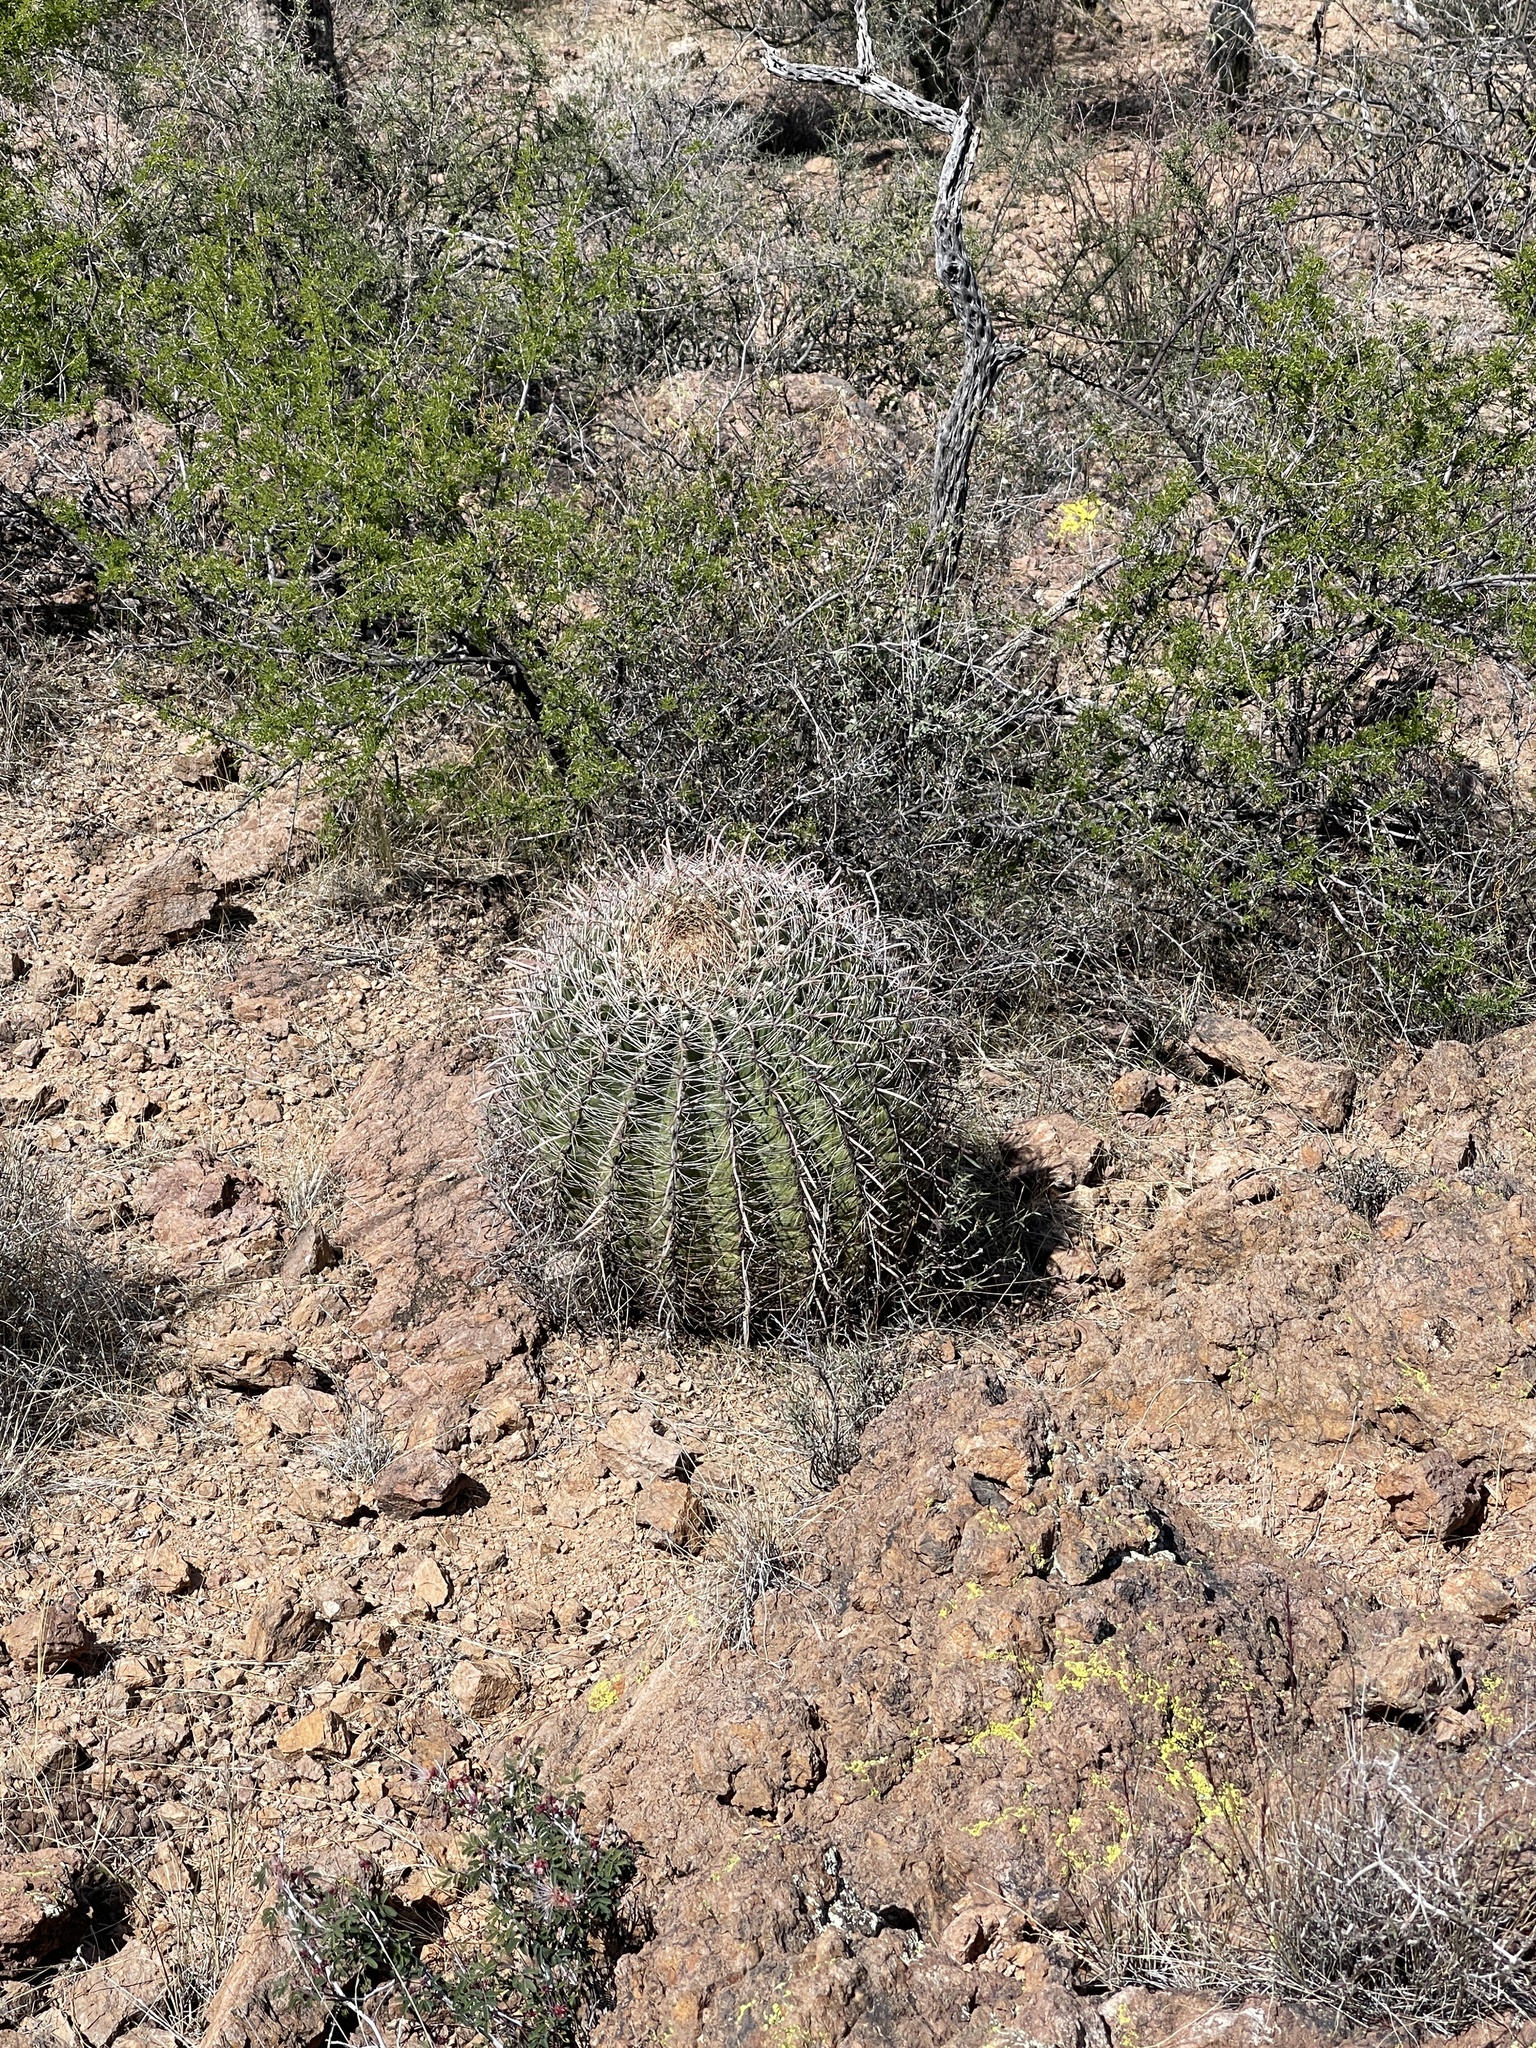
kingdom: Plantae
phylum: Tracheophyta
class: Magnoliopsida
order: Caryophyllales
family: Cactaceae
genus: Ferocactus
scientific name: Ferocactus wislizeni
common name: Candy barrel cactus
